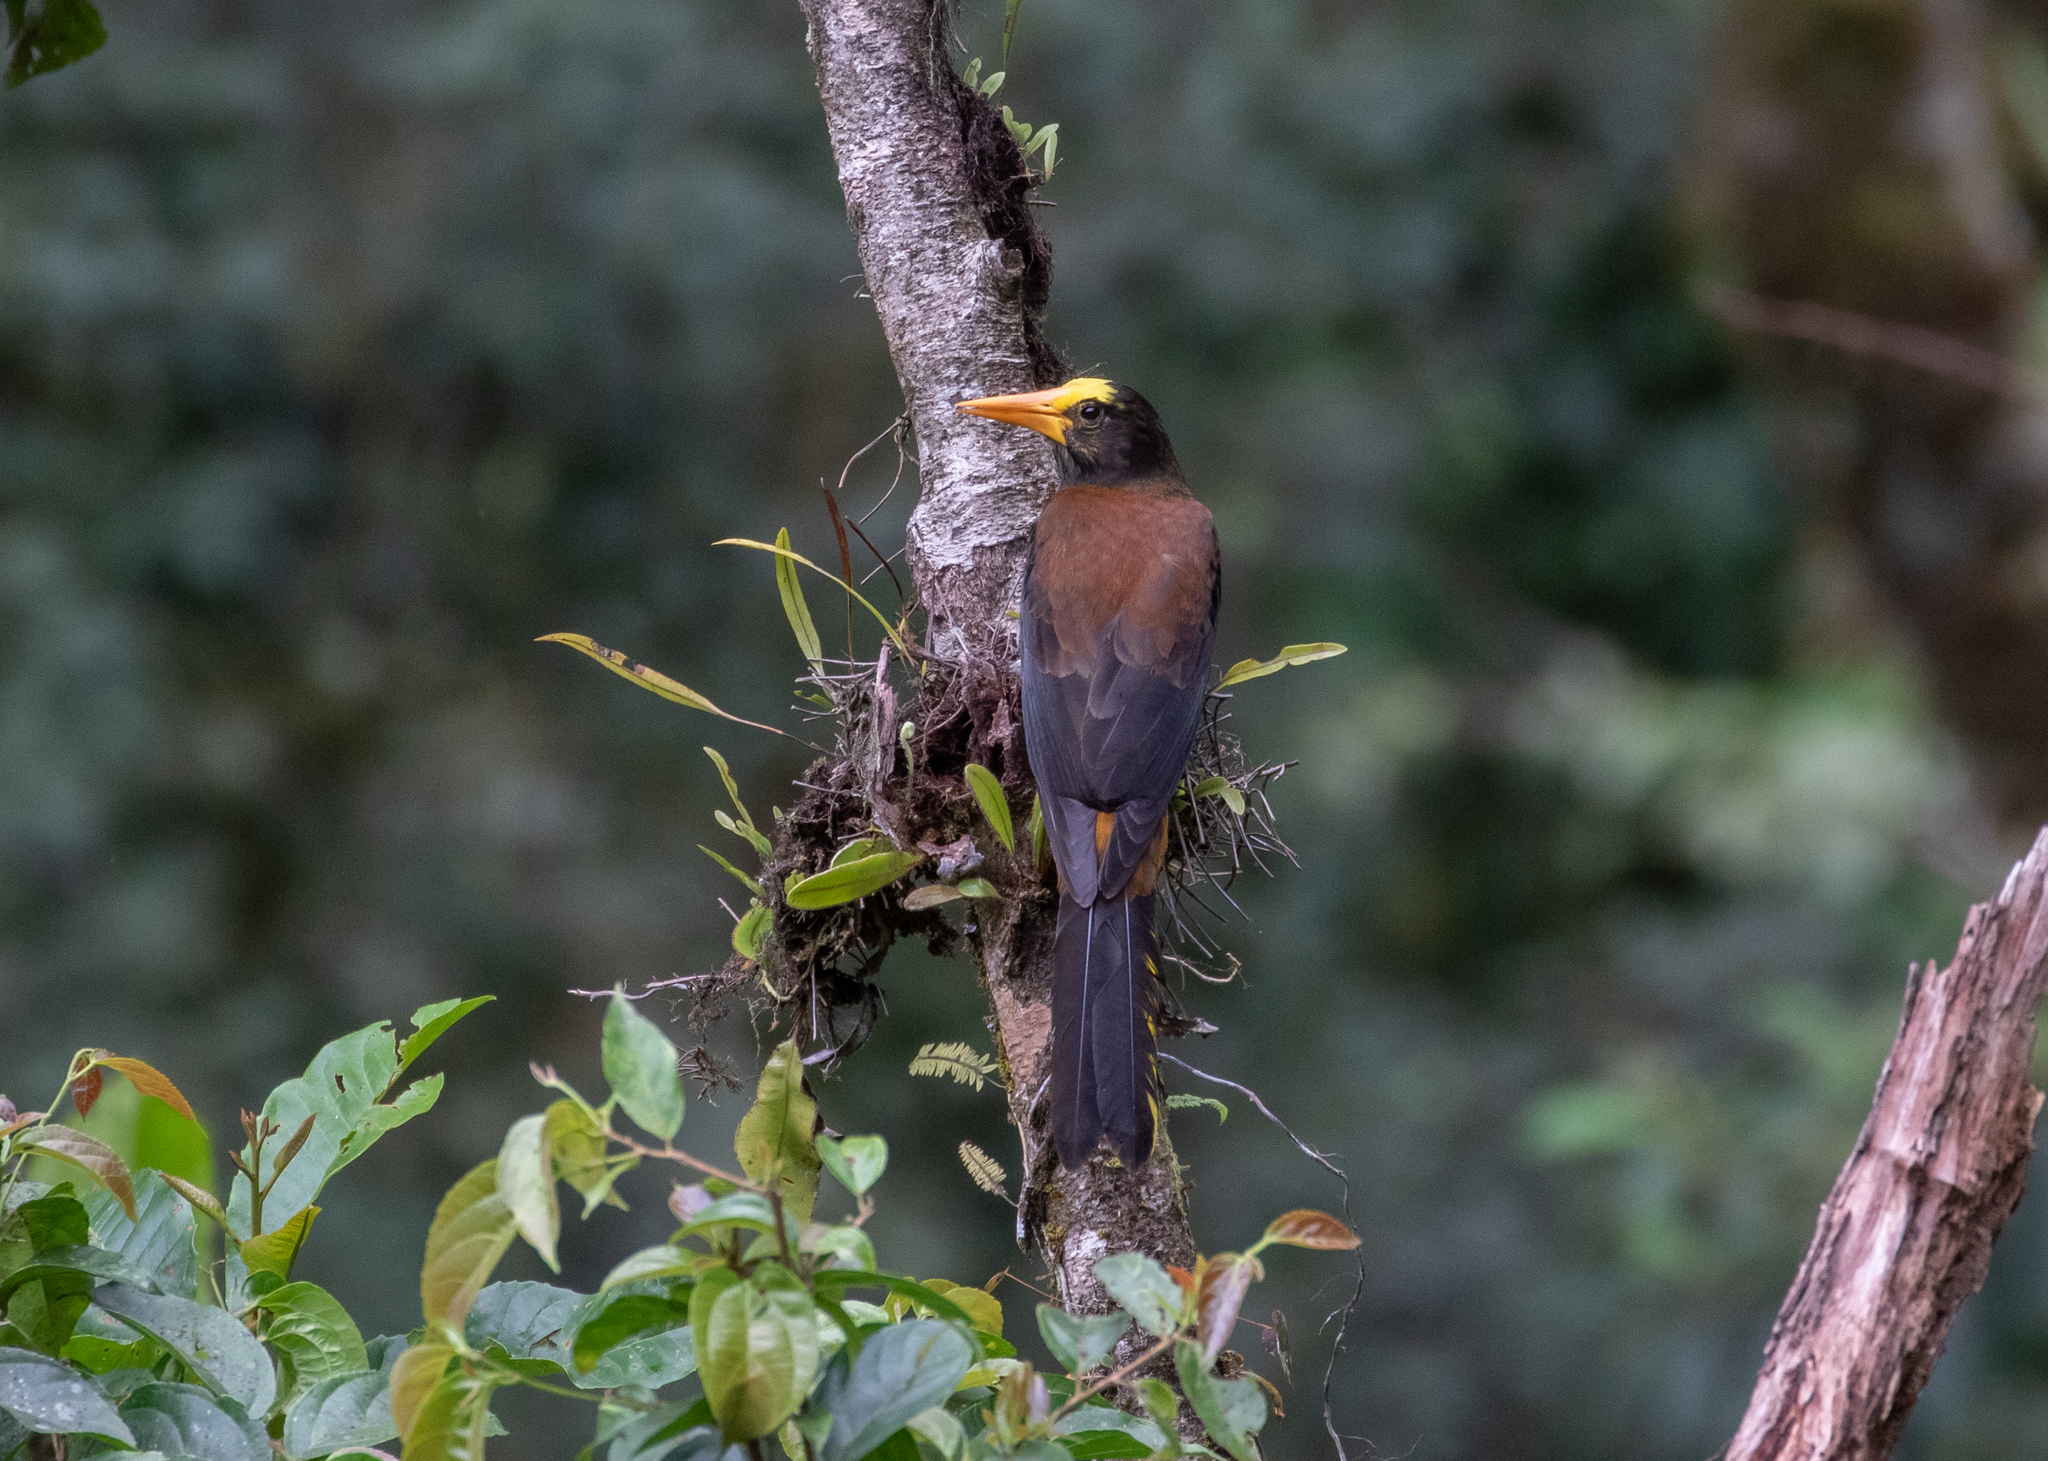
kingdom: Animalia
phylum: Chordata
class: Aves
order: Passeriformes
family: Icteridae
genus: Psarocolius
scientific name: Psarocolius angustifrons
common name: Russet-backed oropendola
